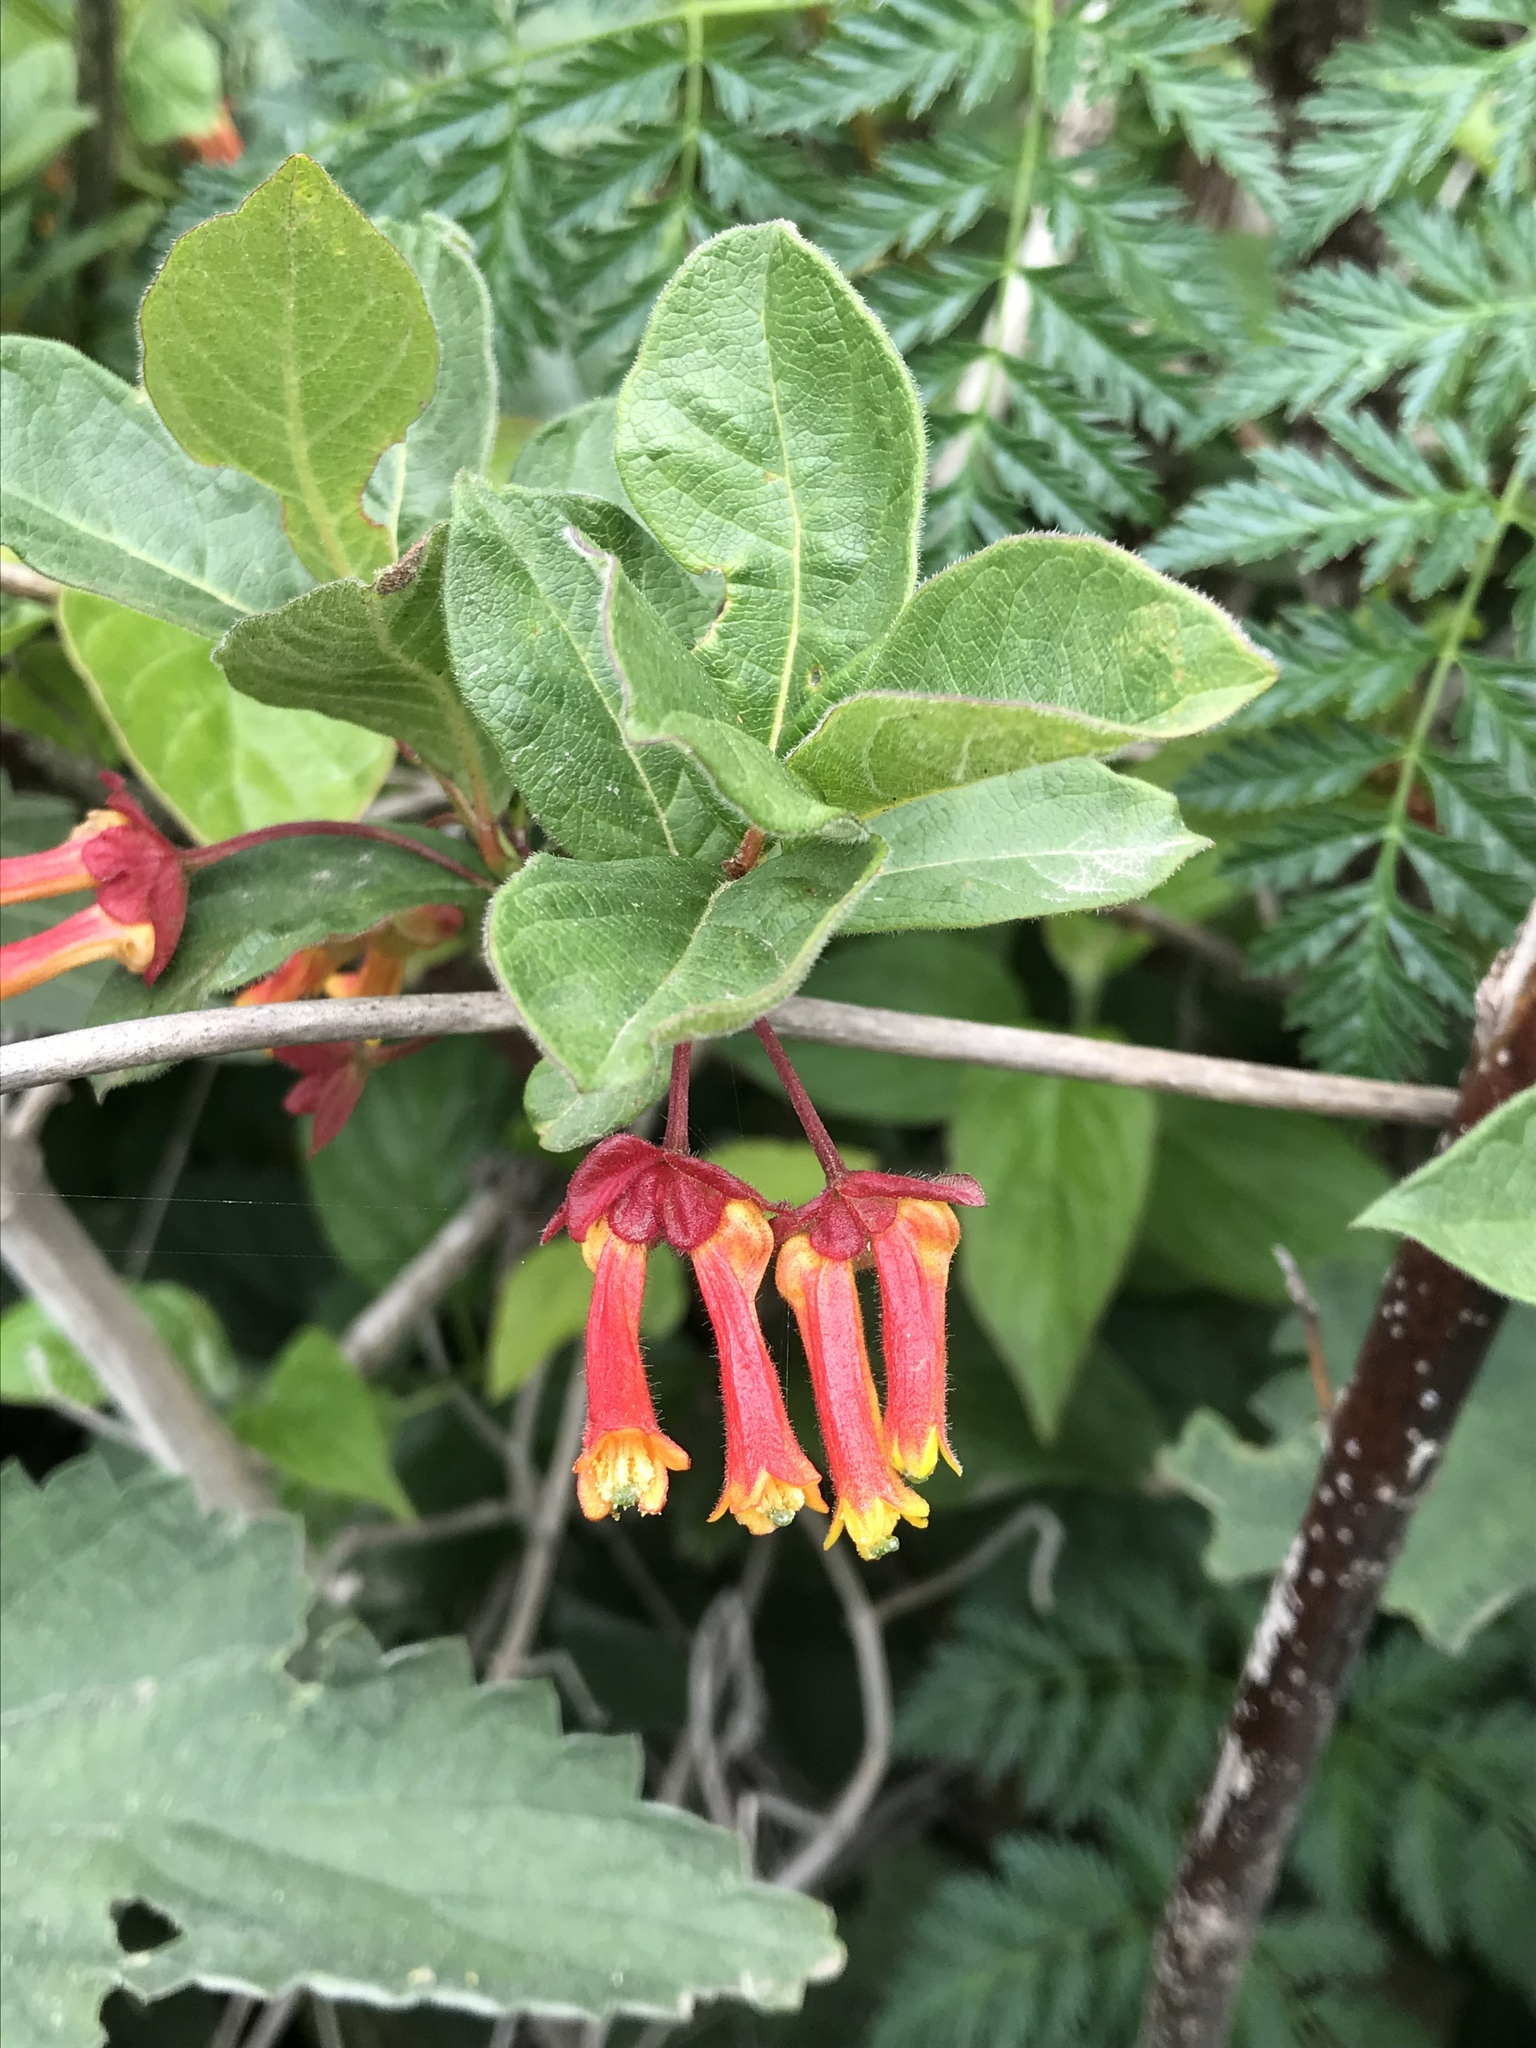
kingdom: Plantae
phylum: Tracheophyta
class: Magnoliopsida
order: Dipsacales
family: Caprifoliaceae
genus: Lonicera
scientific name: Lonicera involucrata
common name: Californian honeysuckle
